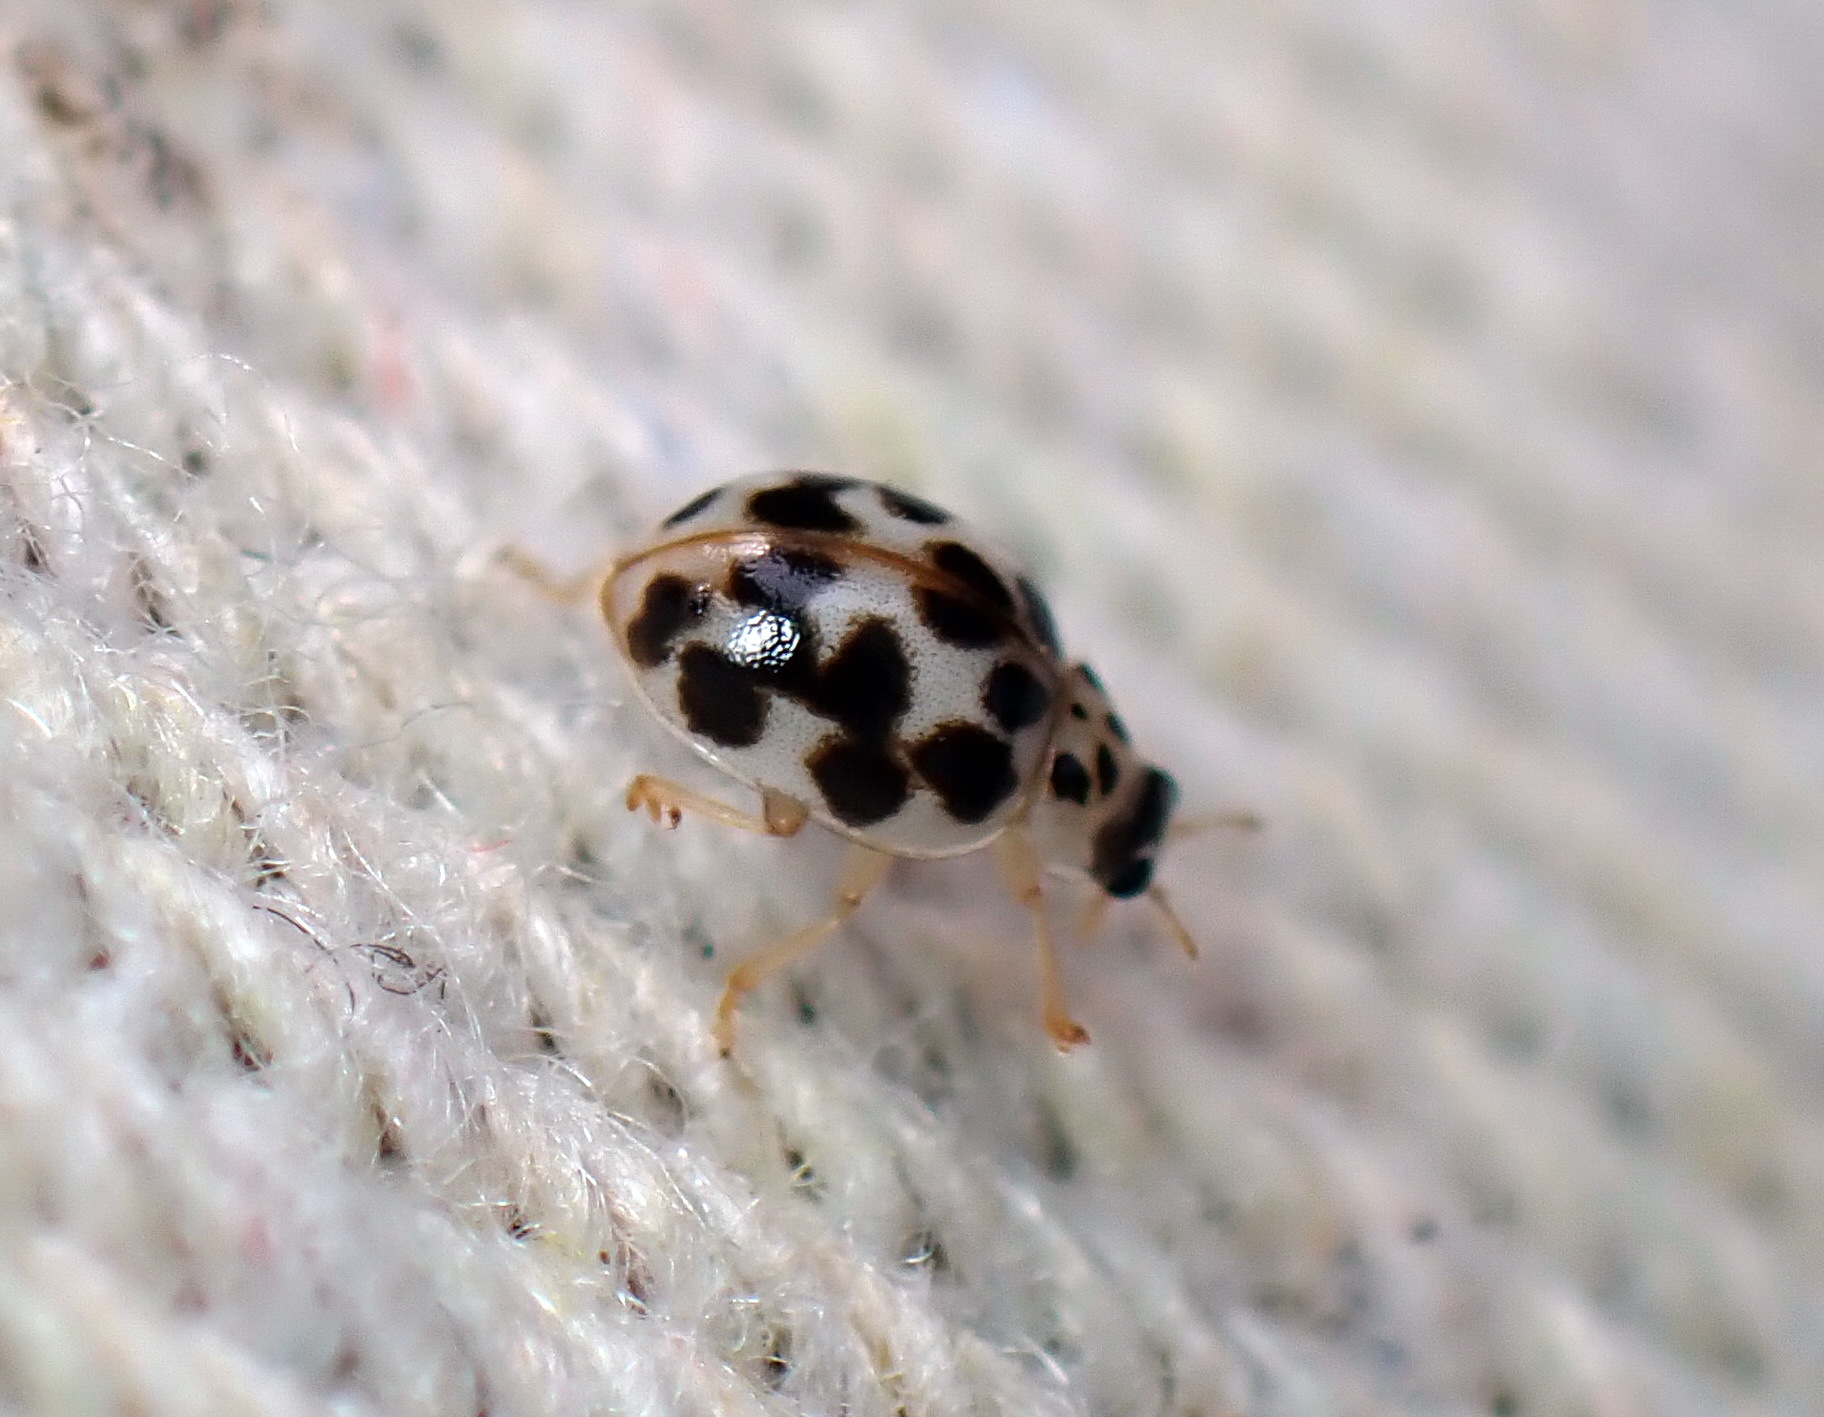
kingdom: Animalia
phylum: Arthropoda
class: Insecta
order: Coleoptera
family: Coccinellidae
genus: Psyllobora
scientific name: Psyllobora vigintimaculata
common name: Ladybird beetle
